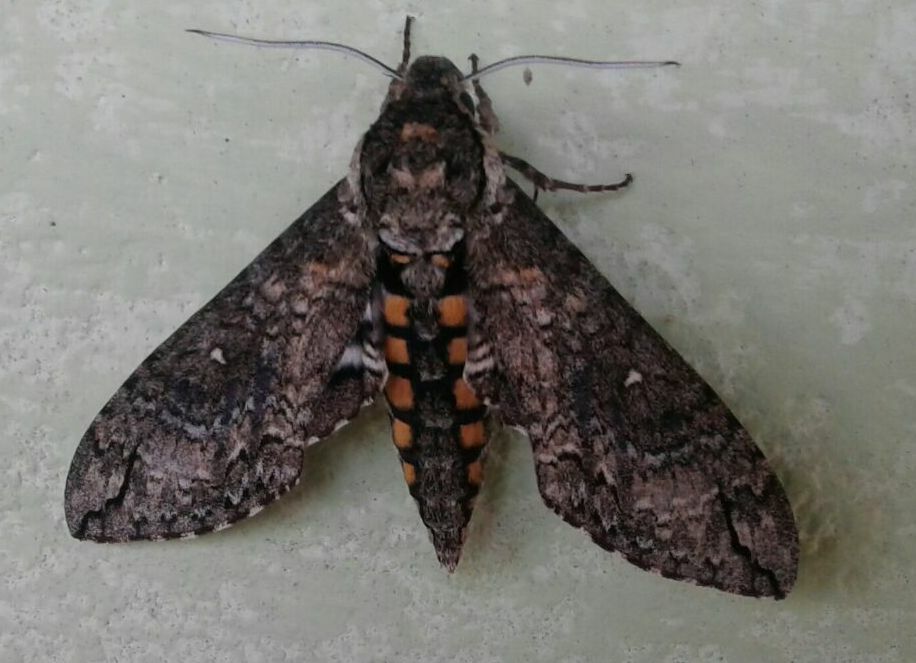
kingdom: Animalia
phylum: Arthropoda
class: Insecta
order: Lepidoptera
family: Sphingidae
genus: Manduca
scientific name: Manduca afflicta
